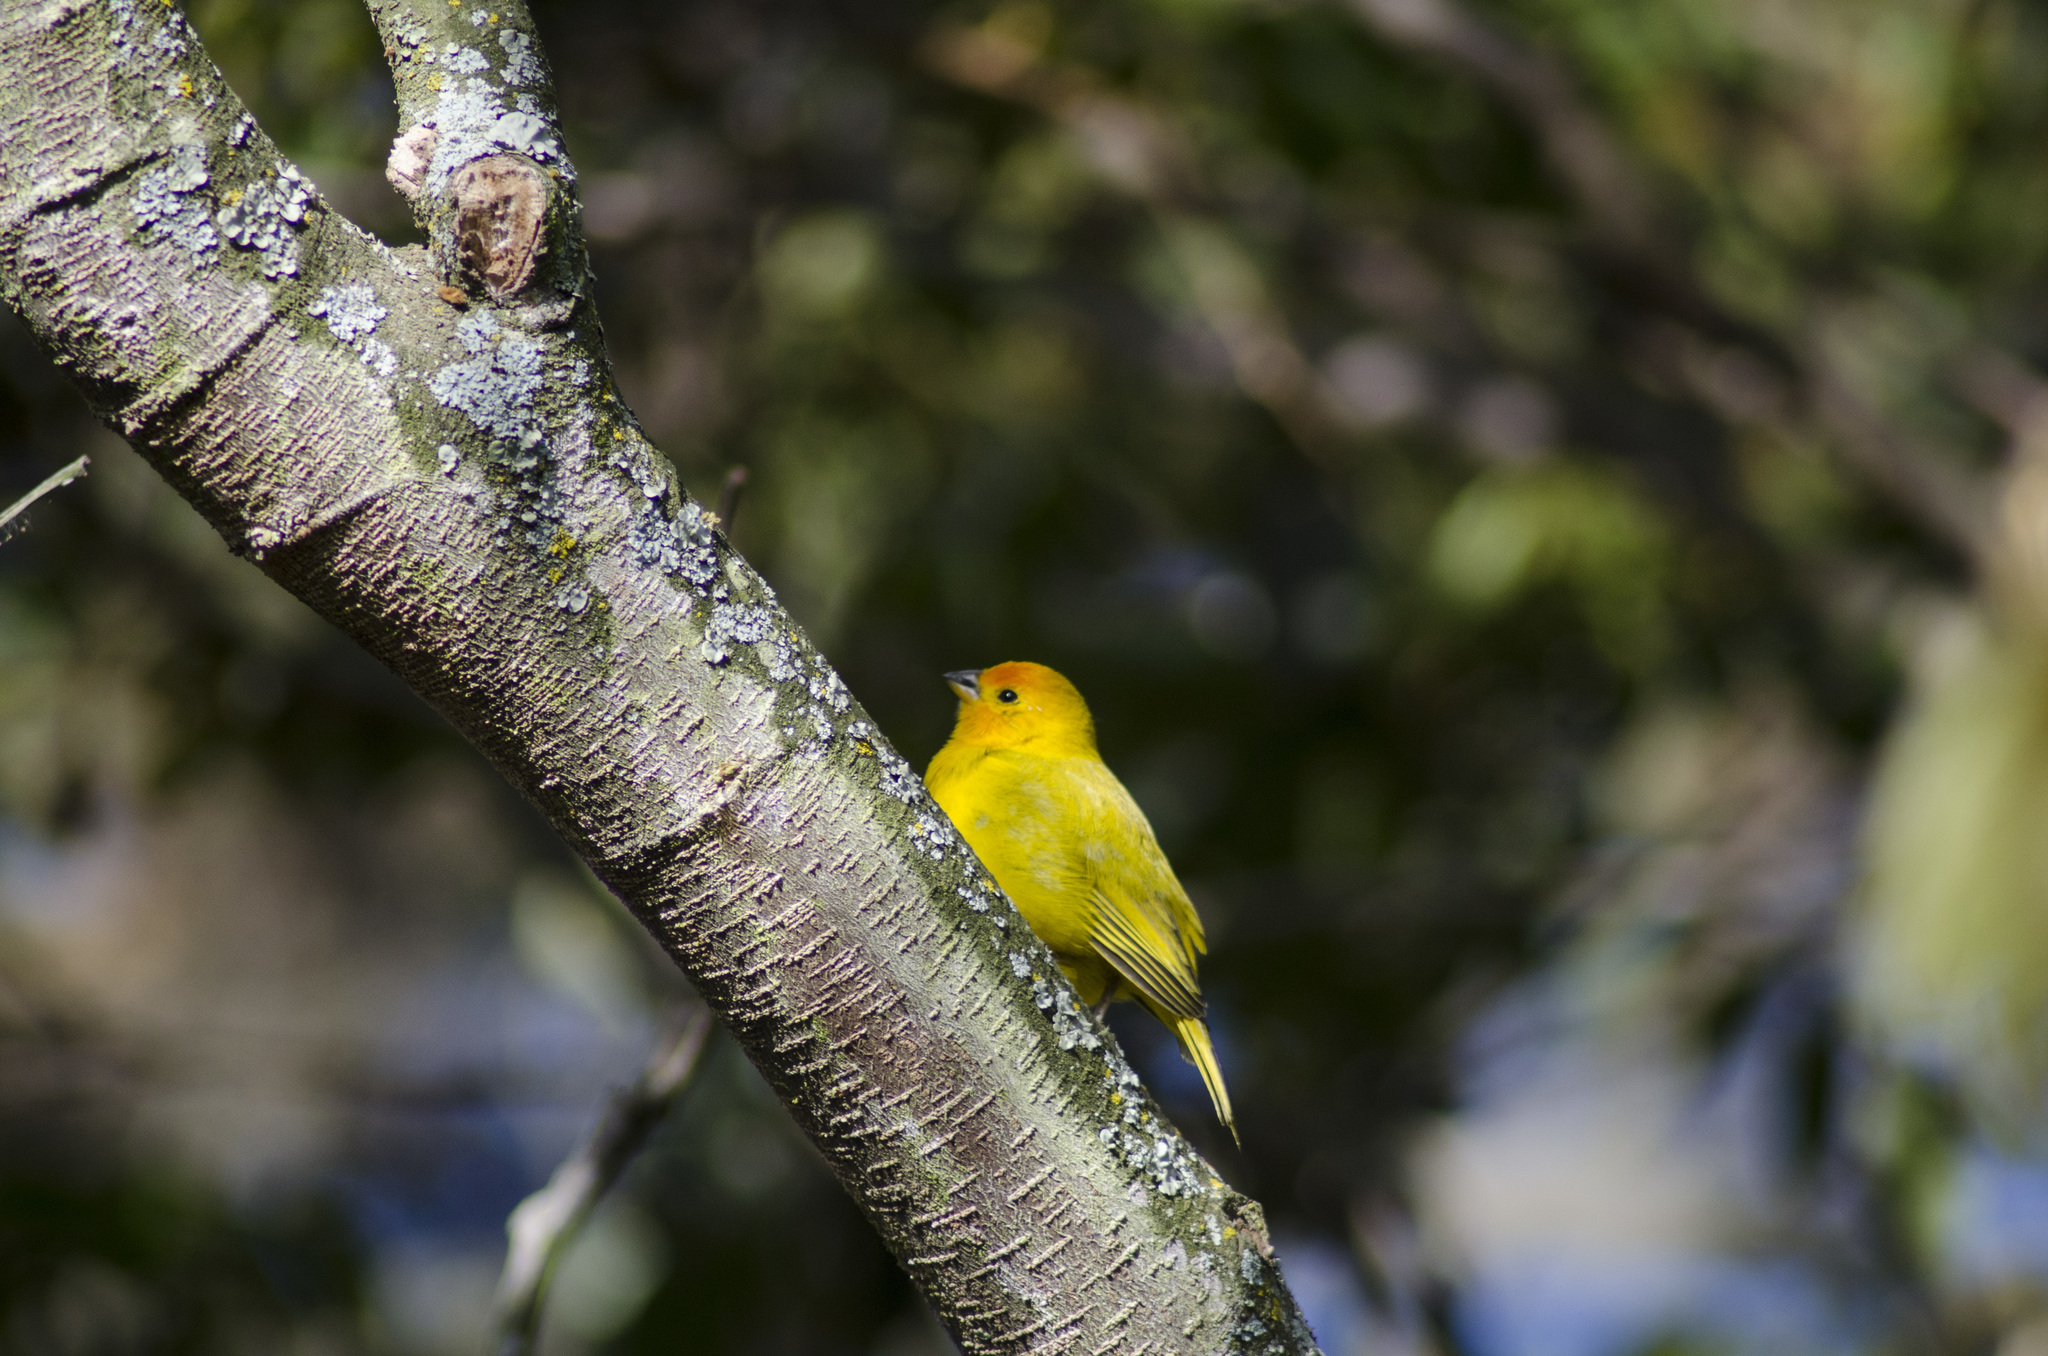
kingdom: Animalia
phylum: Chordata
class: Aves
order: Passeriformes
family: Thraupidae
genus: Sicalis
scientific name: Sicalis flaveola
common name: Saffron finch
